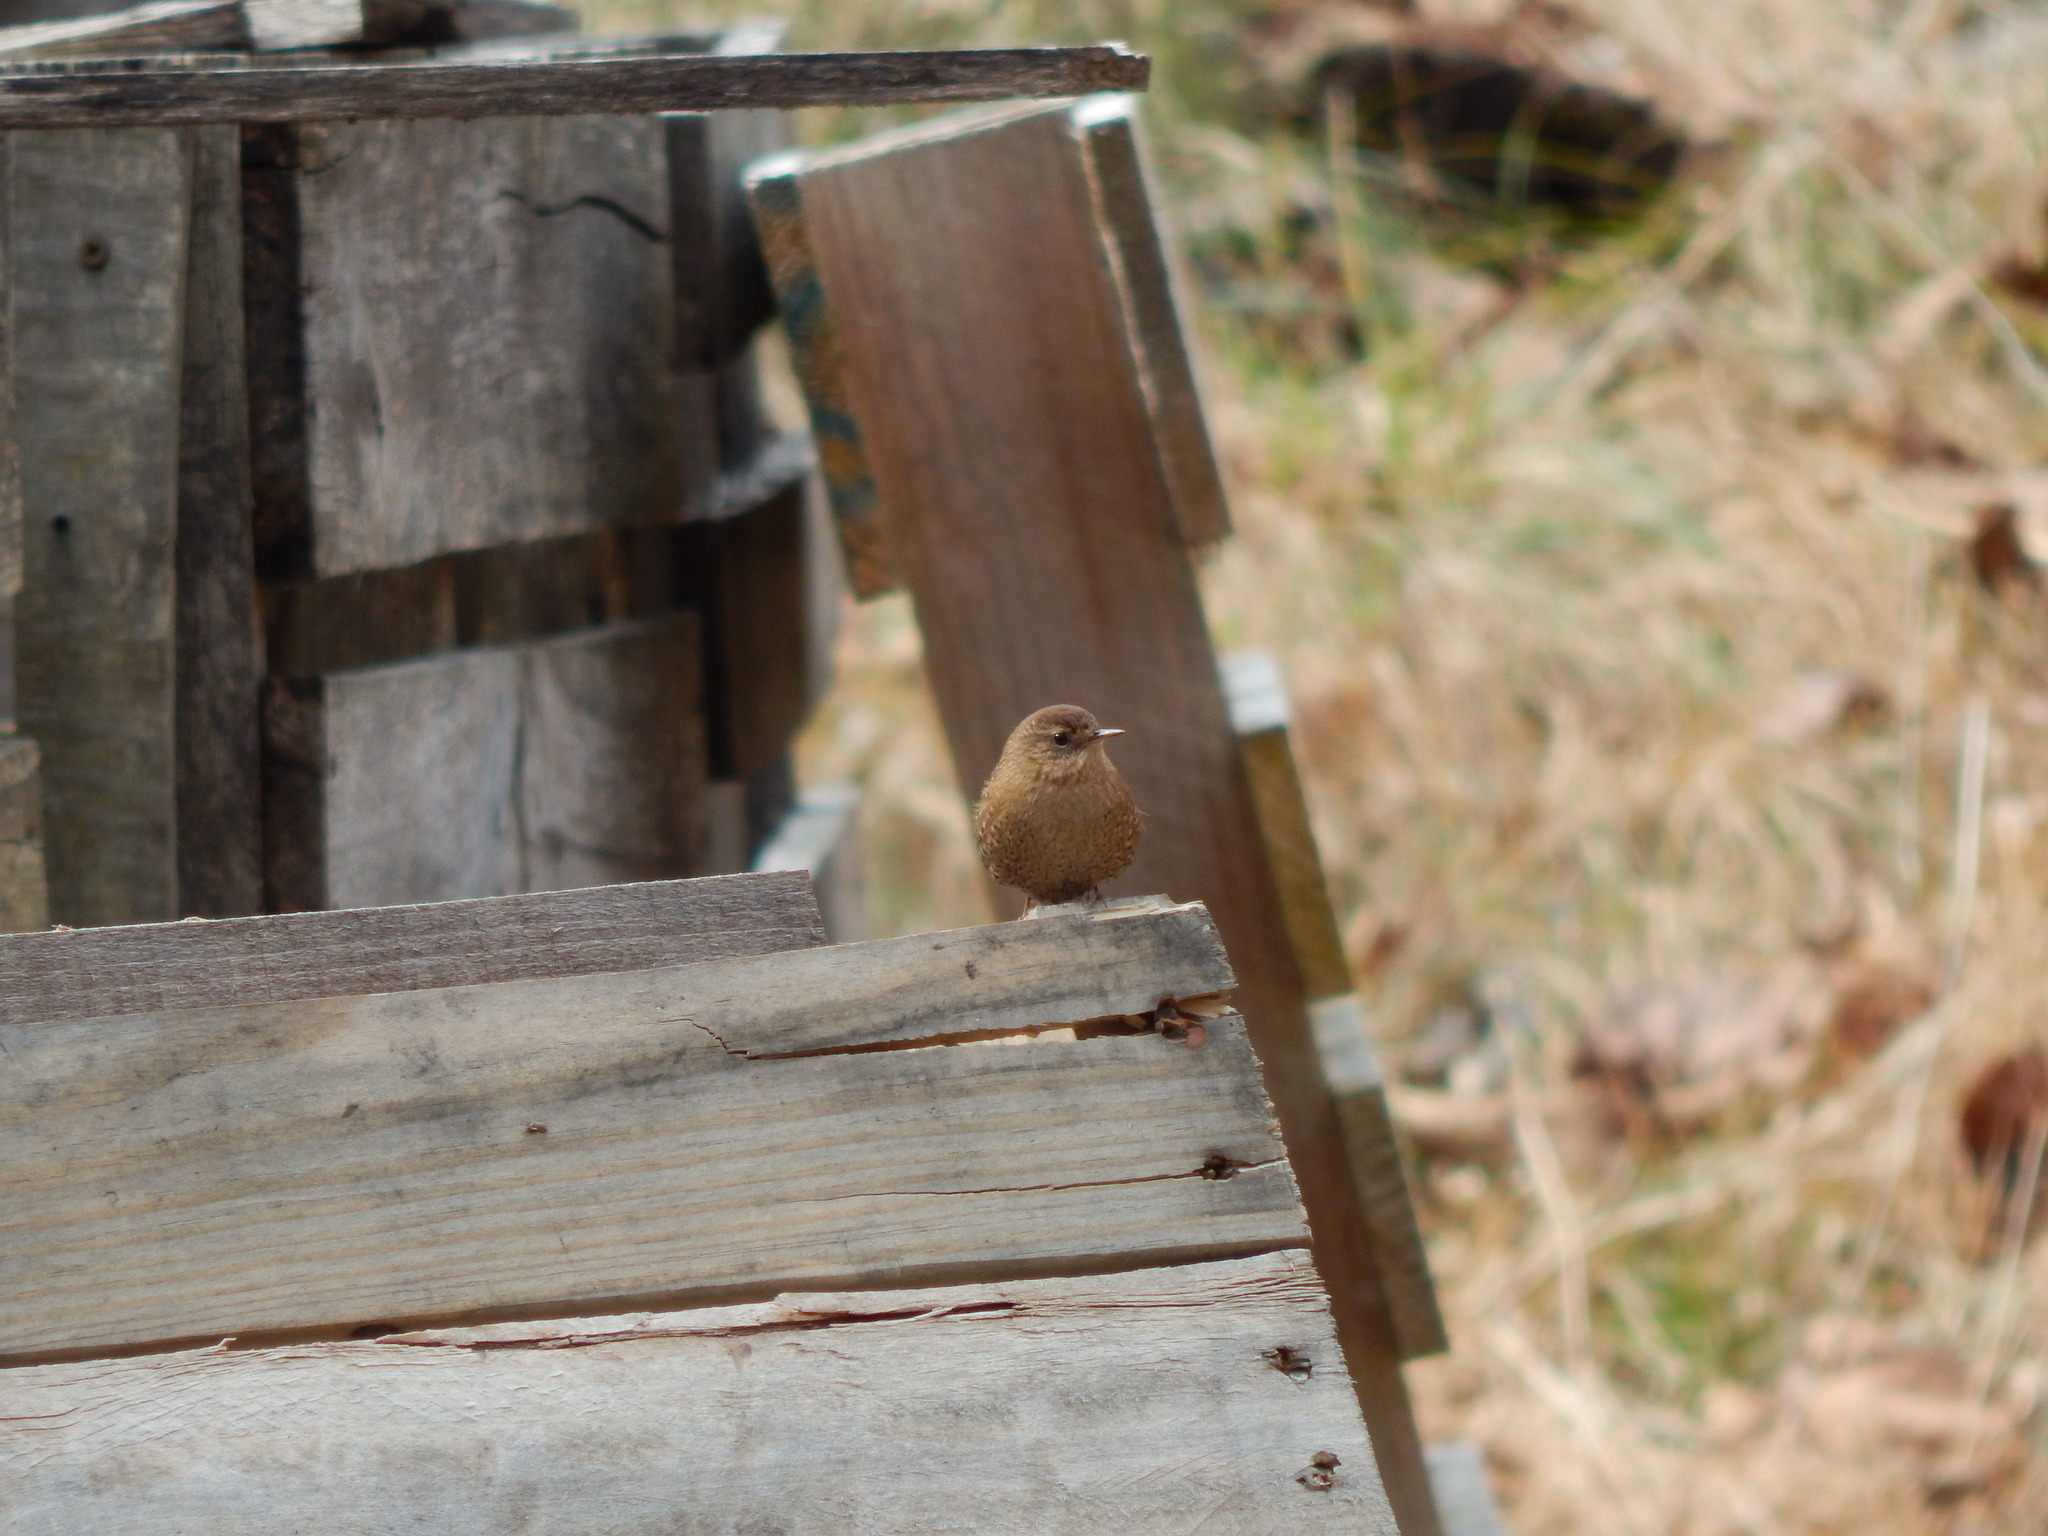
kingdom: Animalia
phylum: Chordata
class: Aves
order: Passeriformes
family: Troglodytidae
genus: Troglodytes
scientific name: Troglodytes hiemalis
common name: Winter wren
